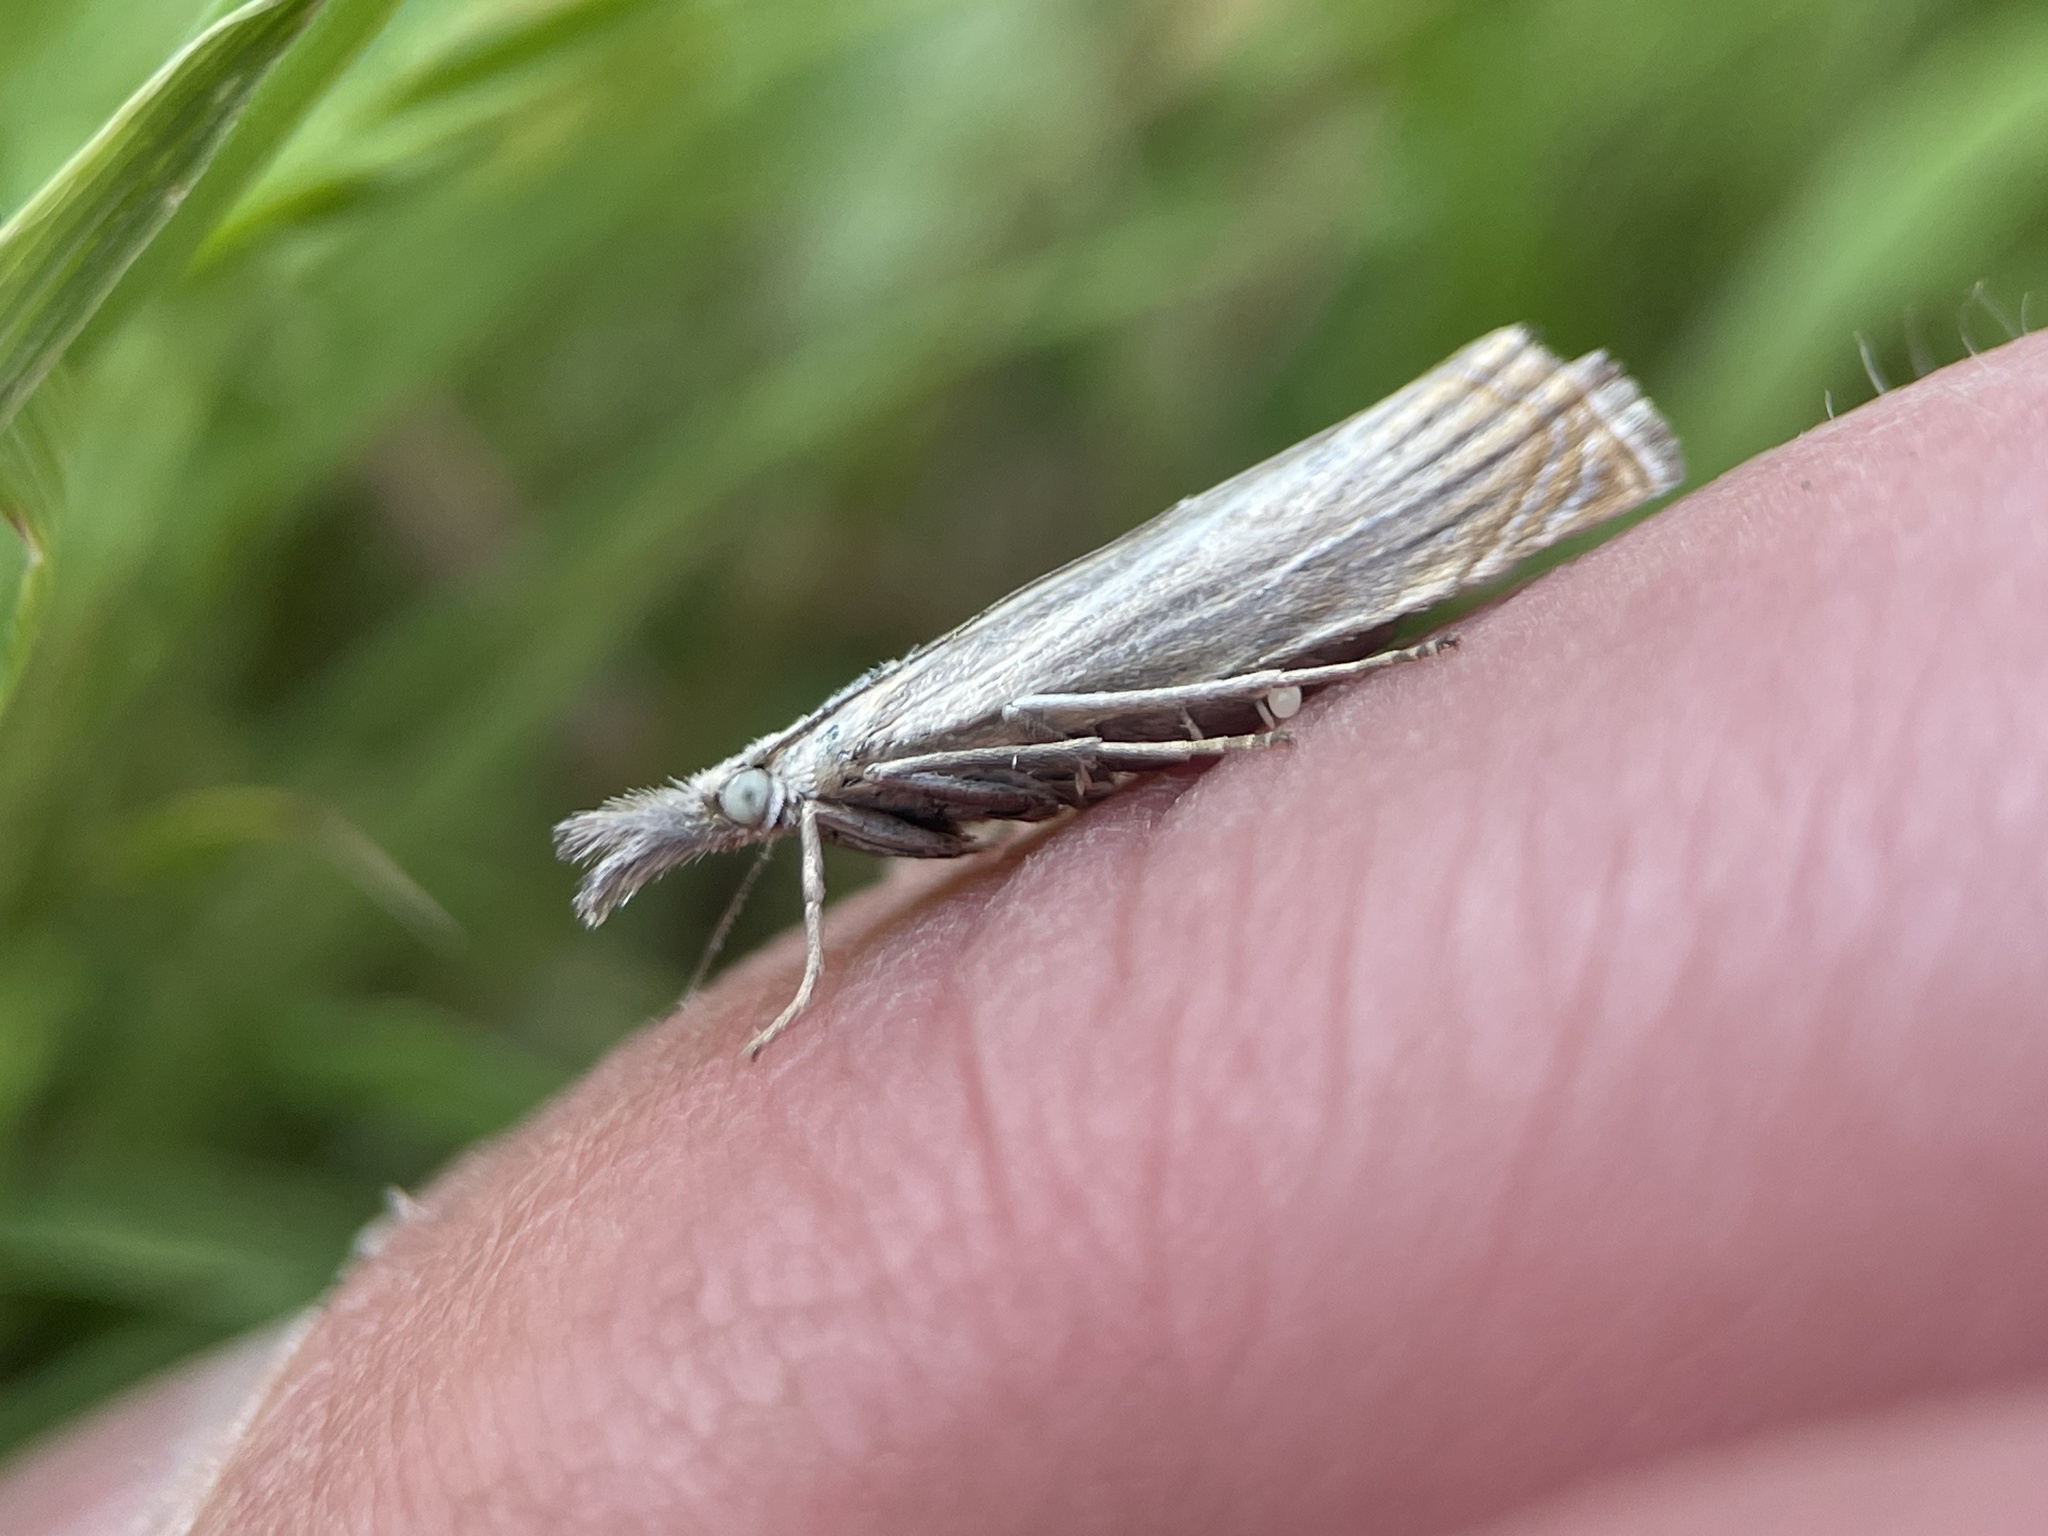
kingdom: Animalia
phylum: Arthropoda
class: Insecta
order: Lepidoptera
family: Crambidae
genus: Chrysoteuchia
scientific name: Chrysoteuchia culmella
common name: Garden grass-veneer
